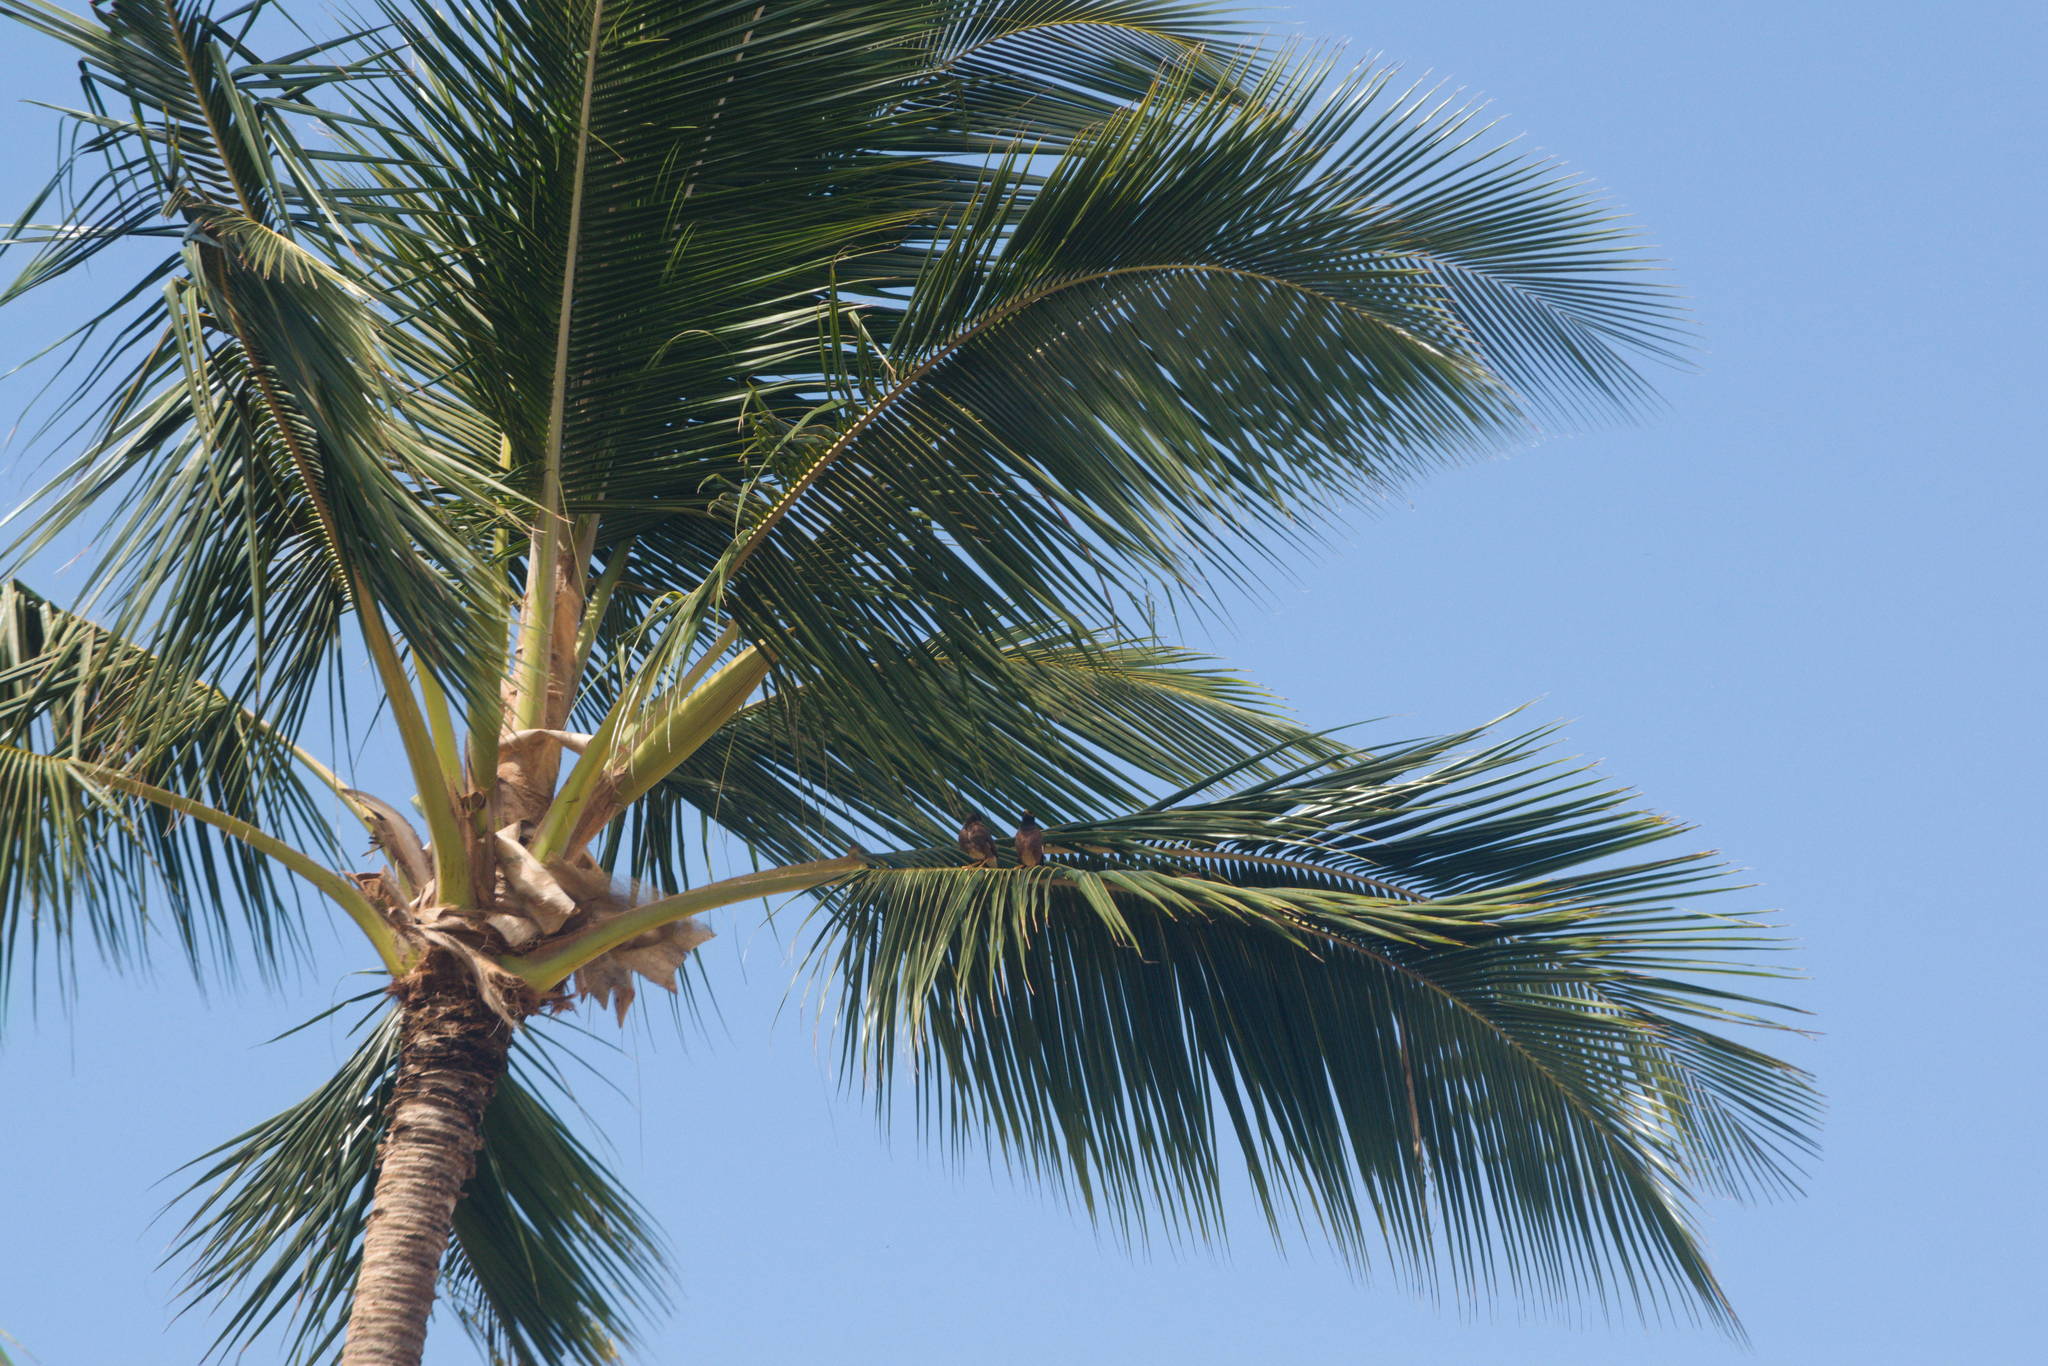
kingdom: Animalia
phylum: Chordata
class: Aves
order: Passeriformes
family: Sturnidae
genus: Acridotheres
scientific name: Acridotheres tristis
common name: Common myna
